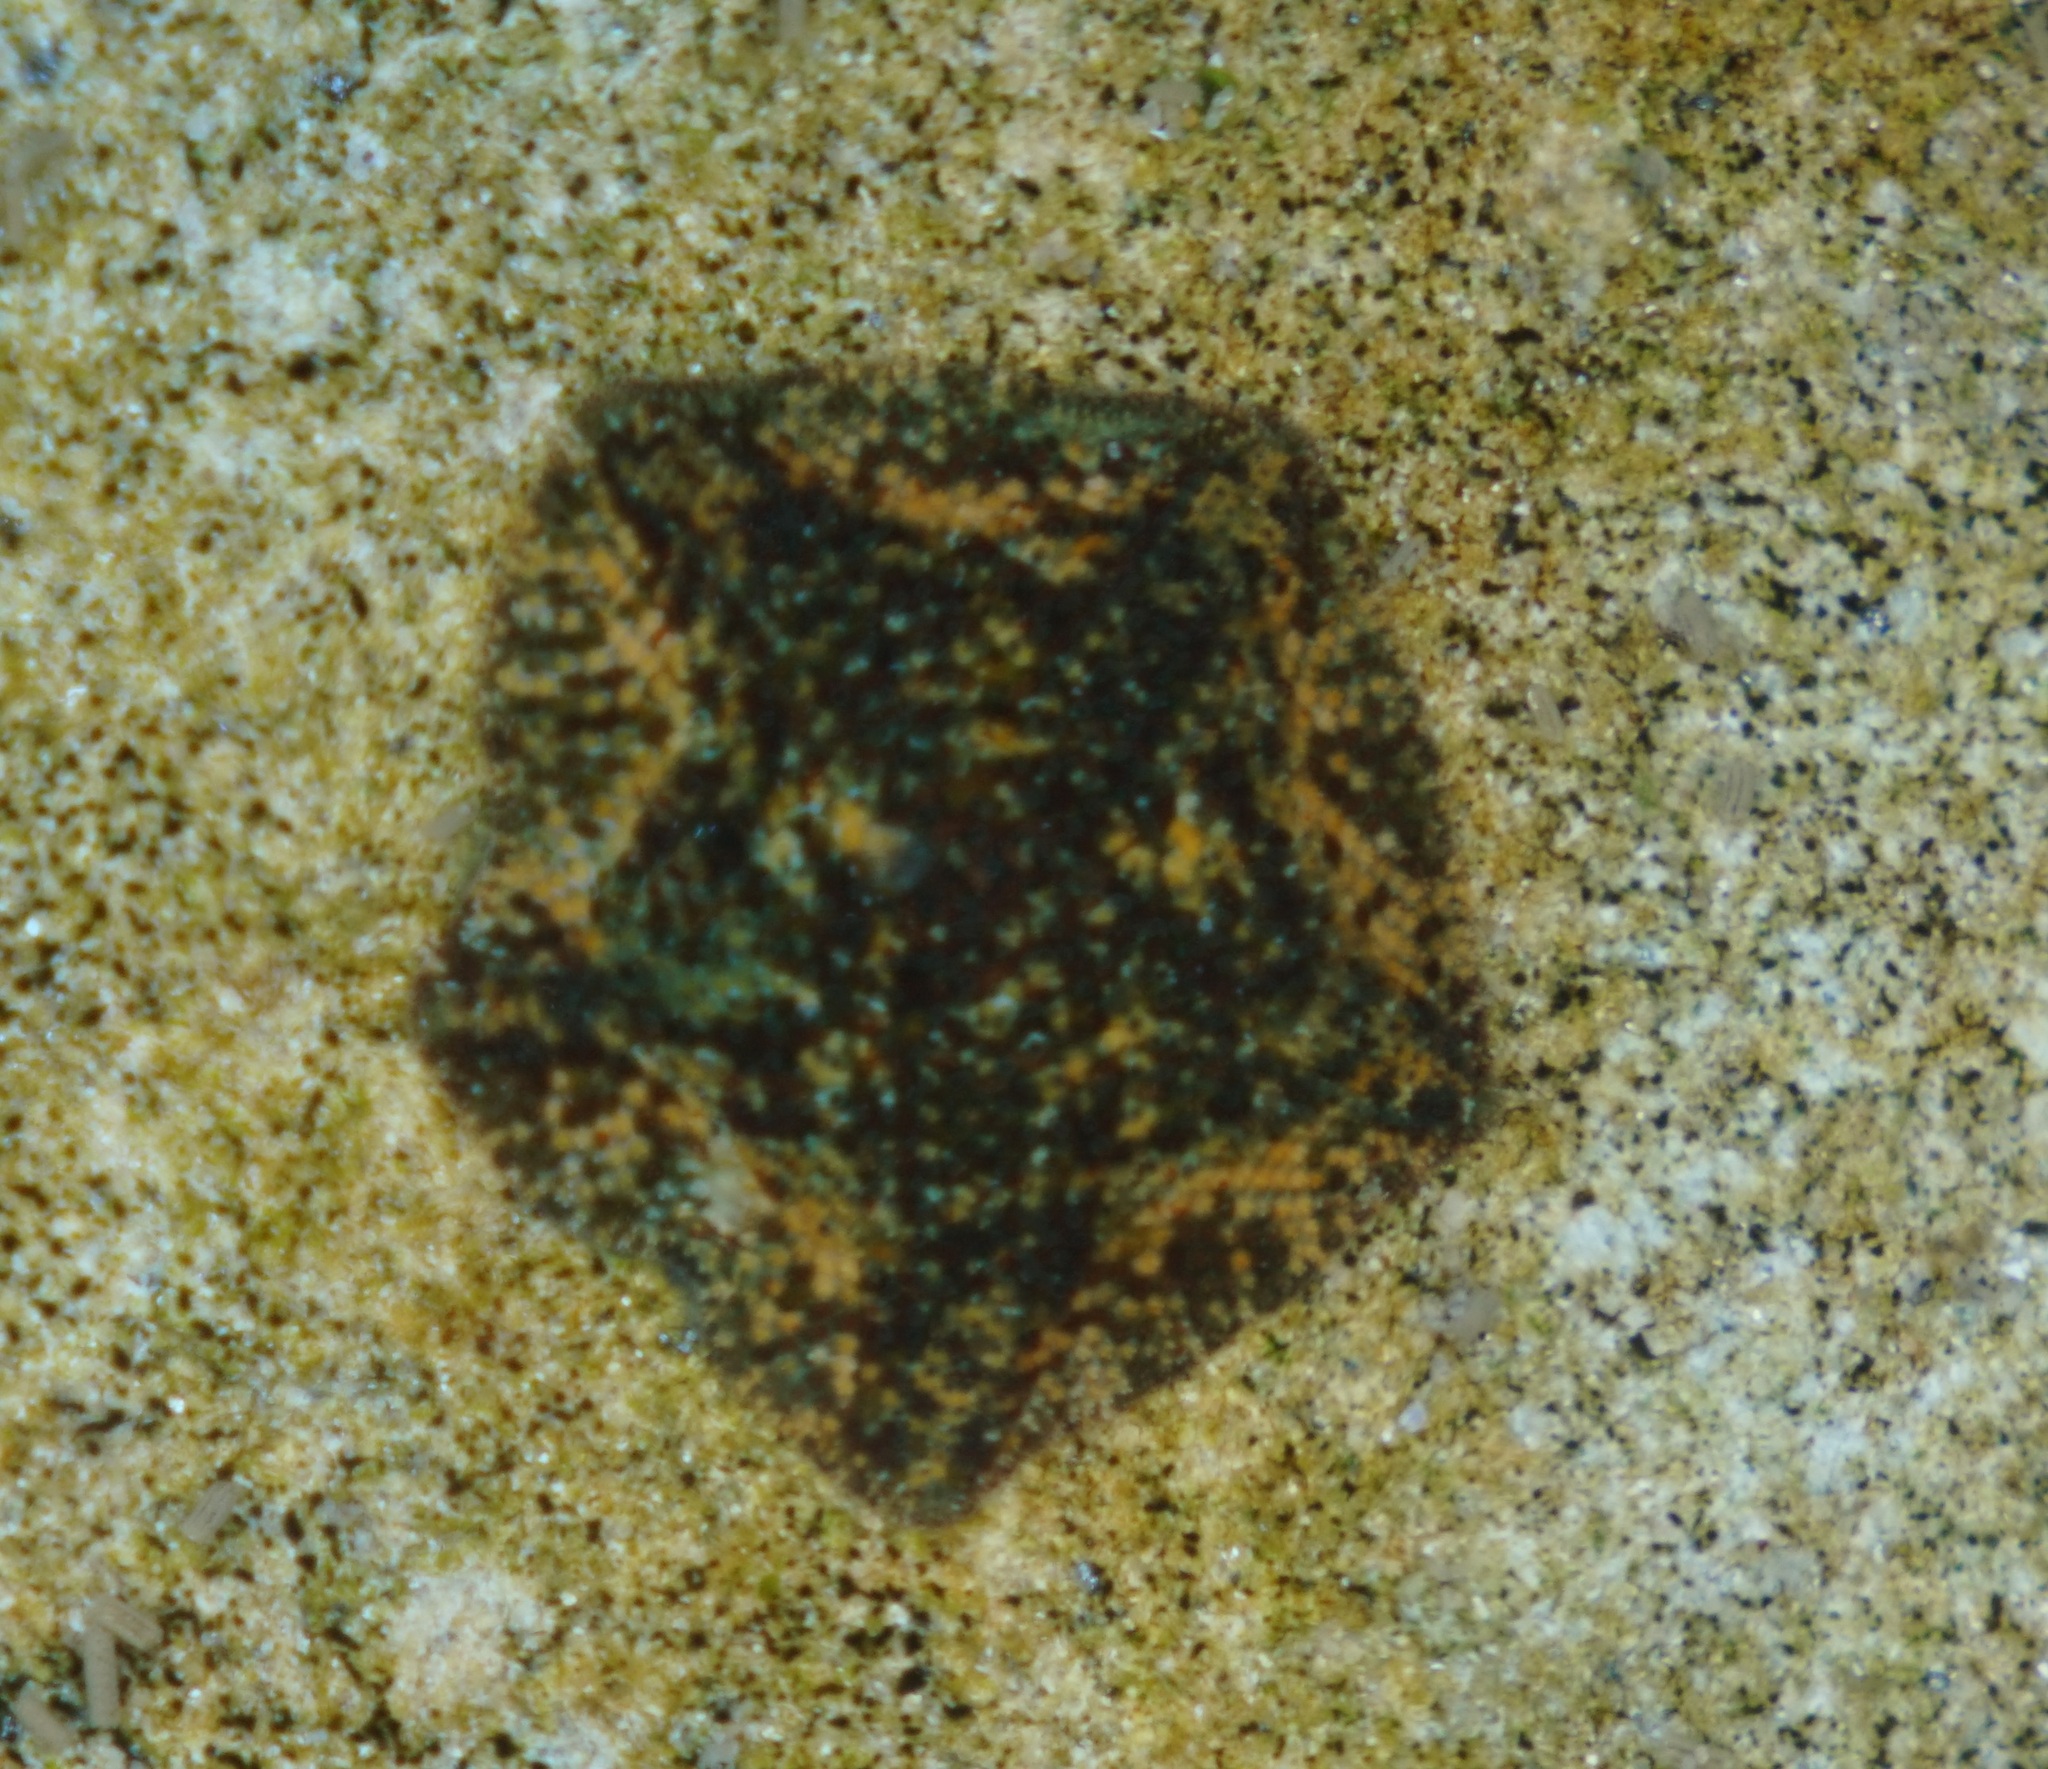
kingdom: Animalia
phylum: Echinodermata
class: Asteroidea
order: Valvatida
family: Asterinidae
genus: Parvulastra
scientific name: Parvulastra exigua
